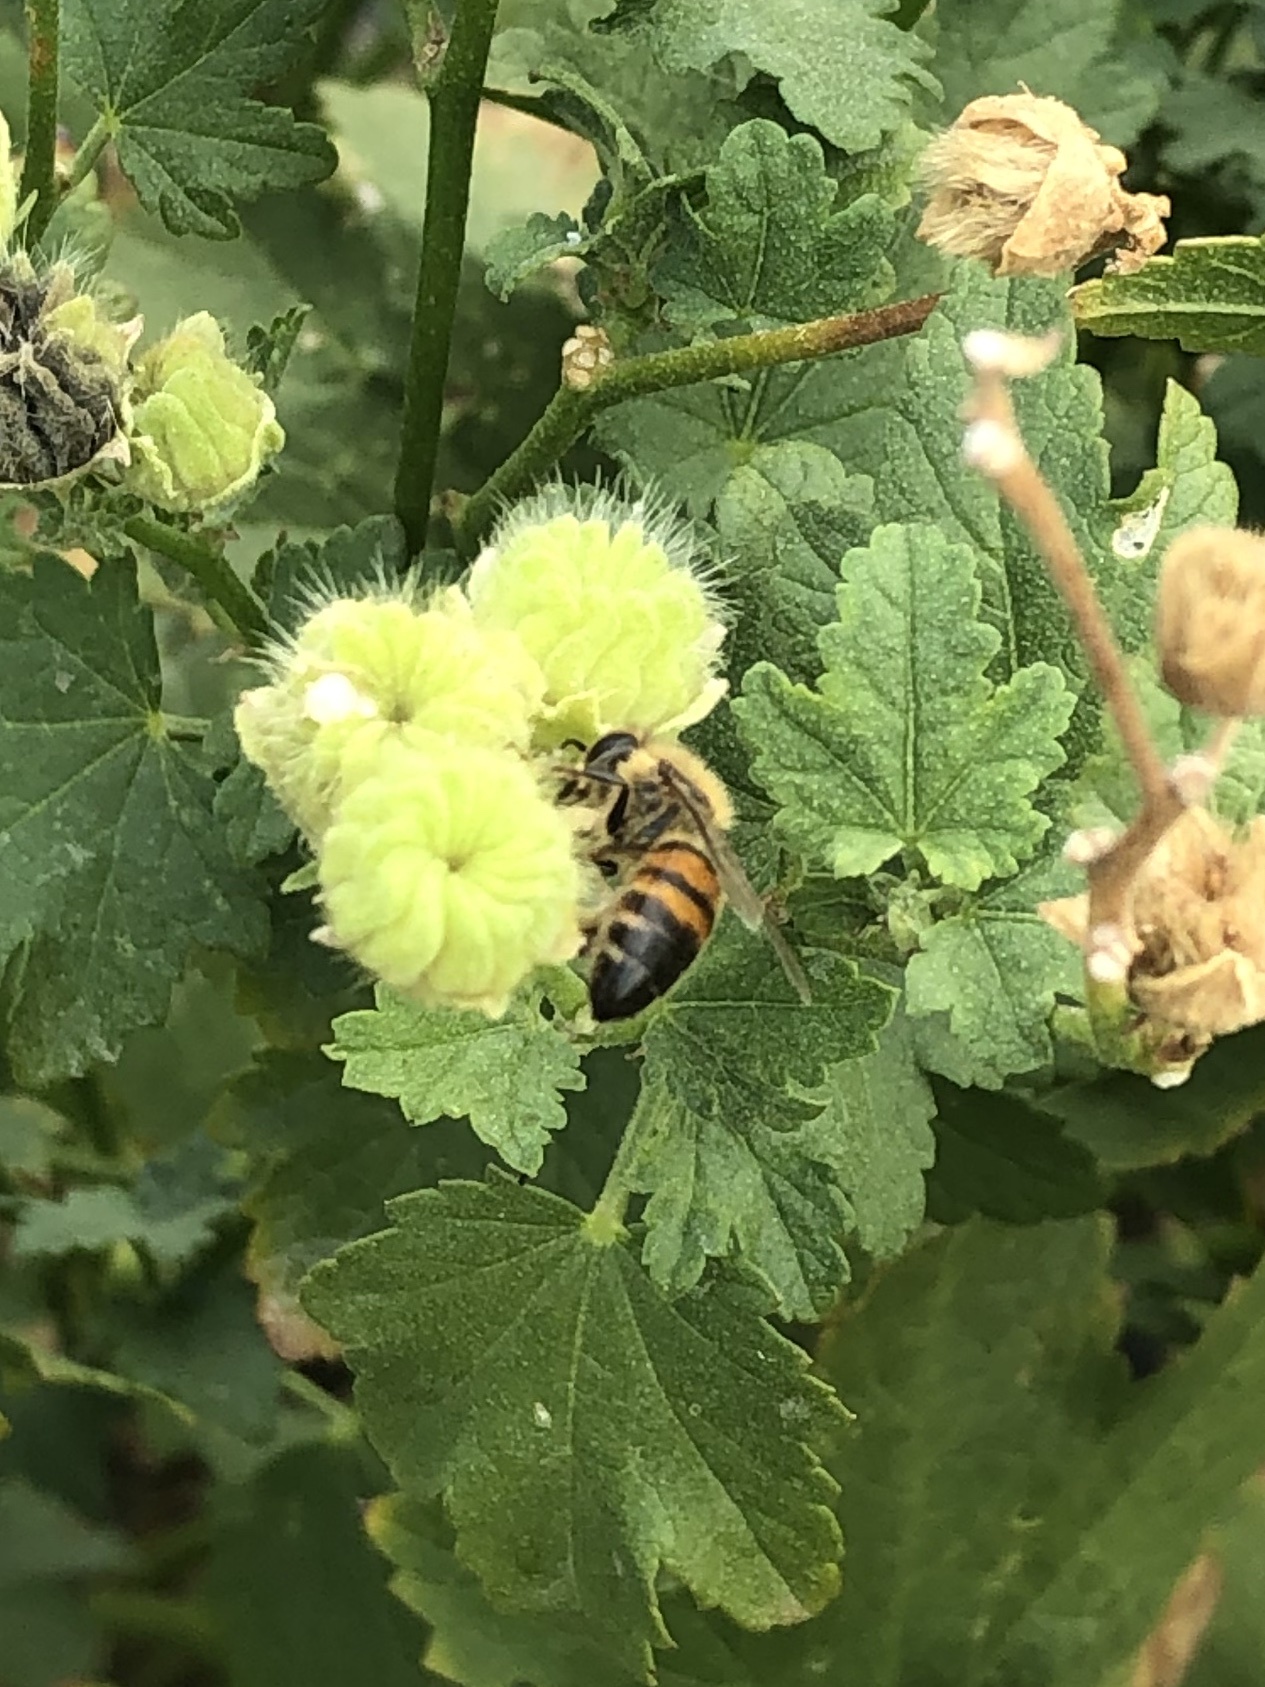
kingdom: Animalia
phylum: Arthropoda
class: Insecta
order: Hymenoptera
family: Apidae
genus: Apis
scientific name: Apis mellifera
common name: Honey bee
